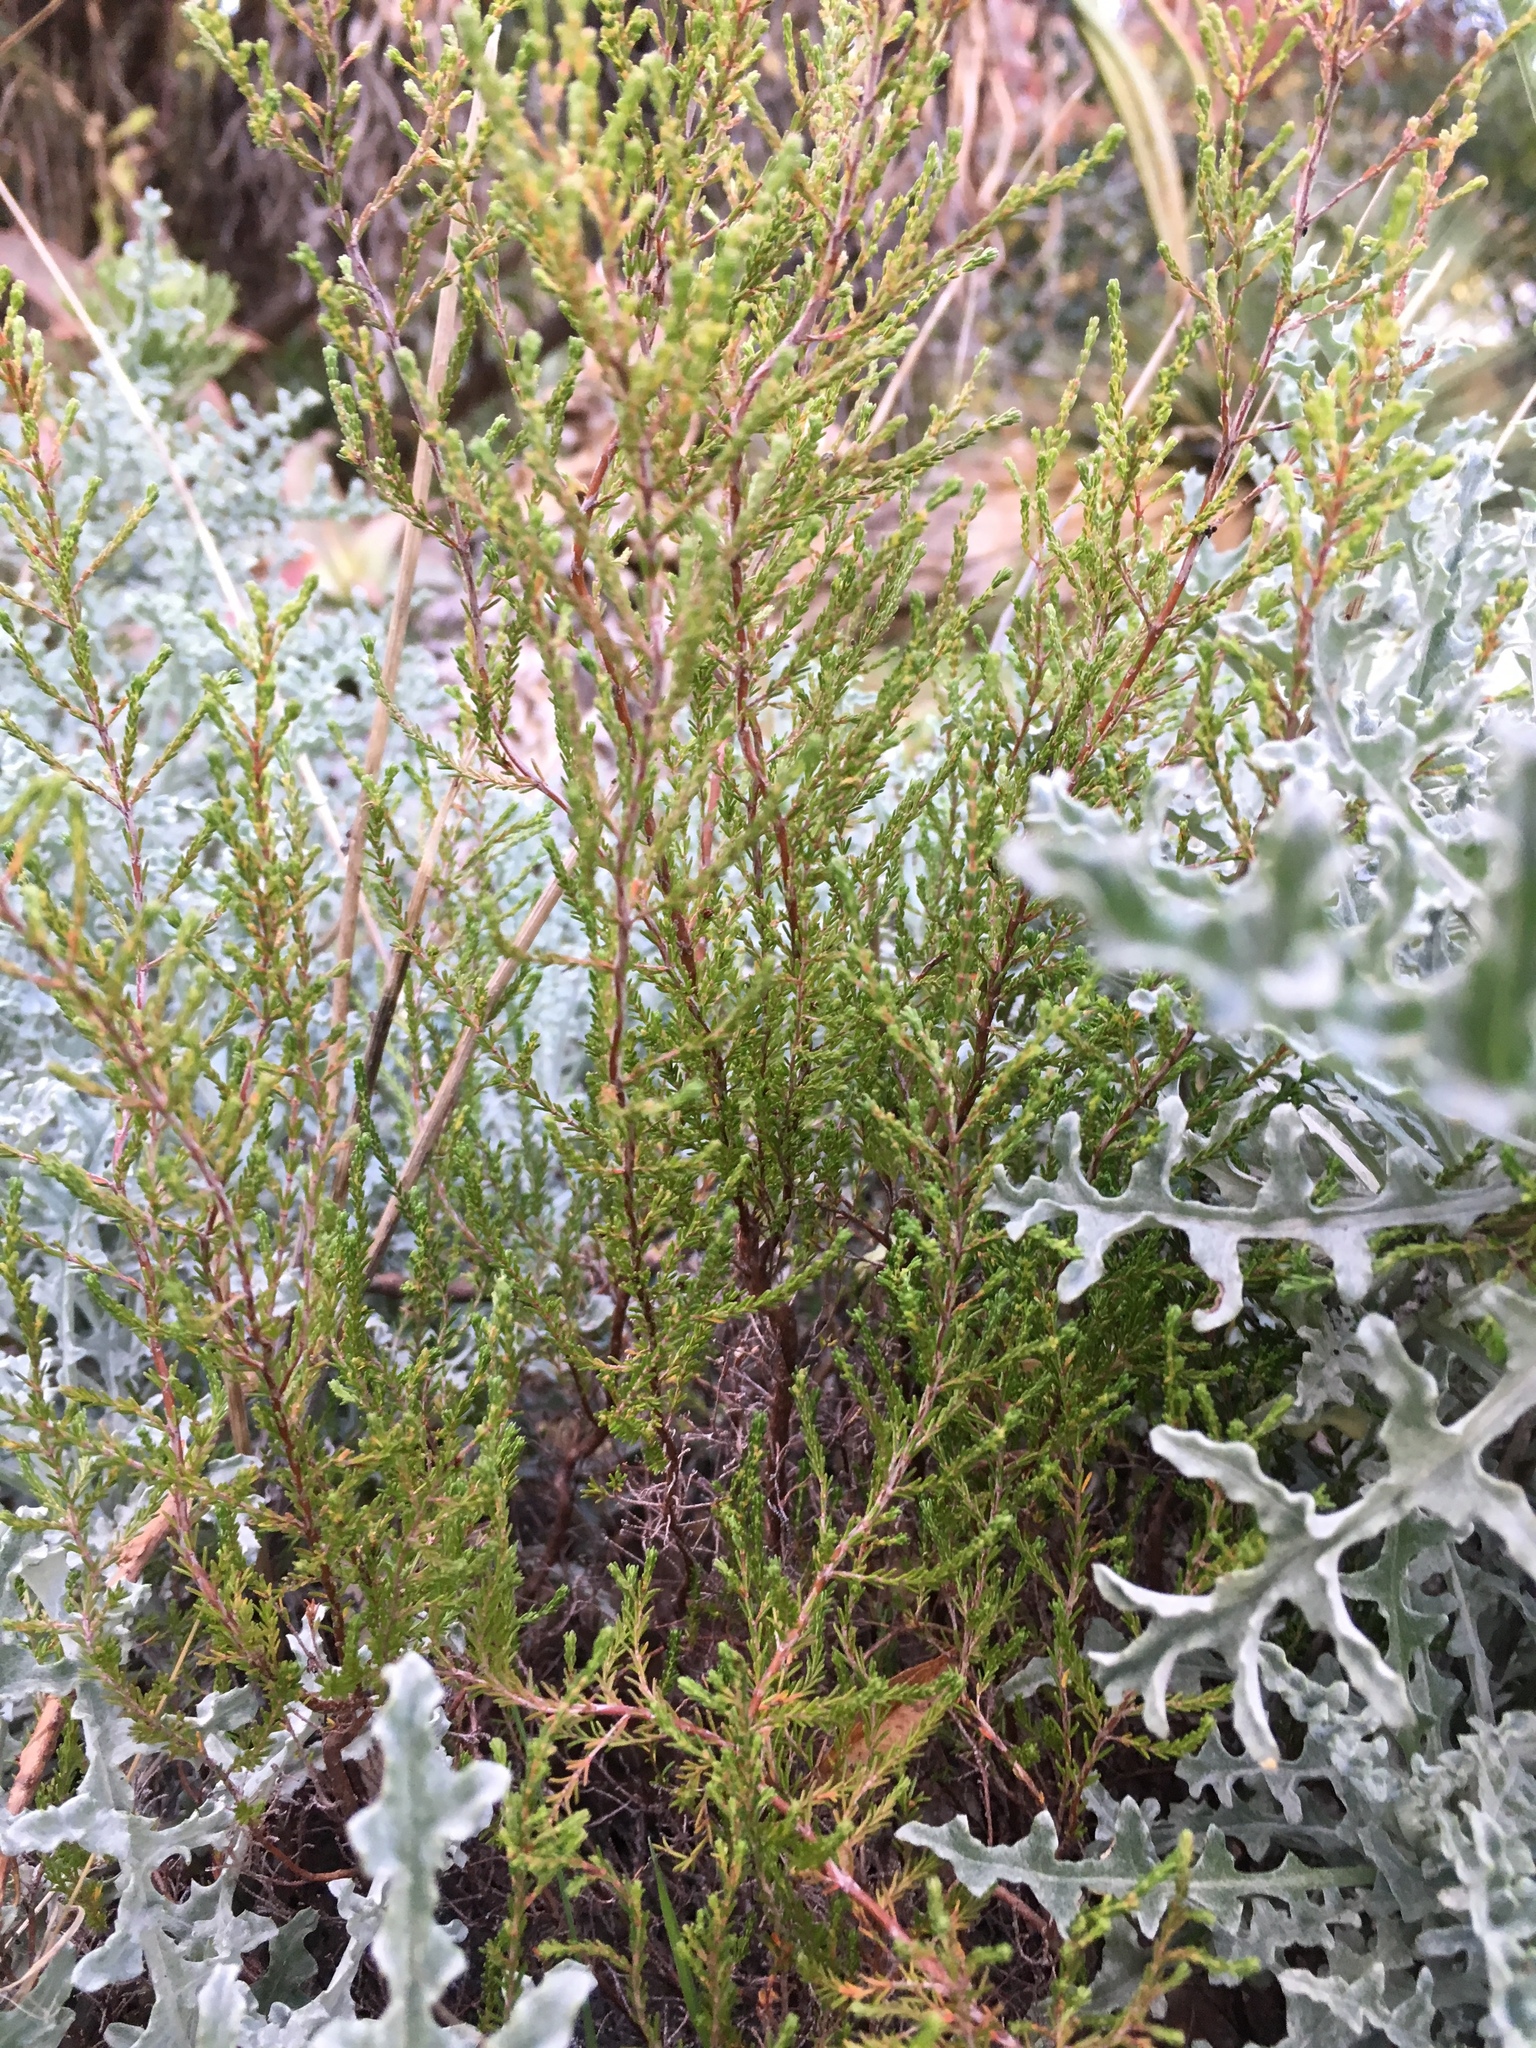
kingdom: Plantae
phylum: Tracheophyta
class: Magnoliopsida
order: Ericales
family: Ericaceae
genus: Erica
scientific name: Erica subdivaricata
